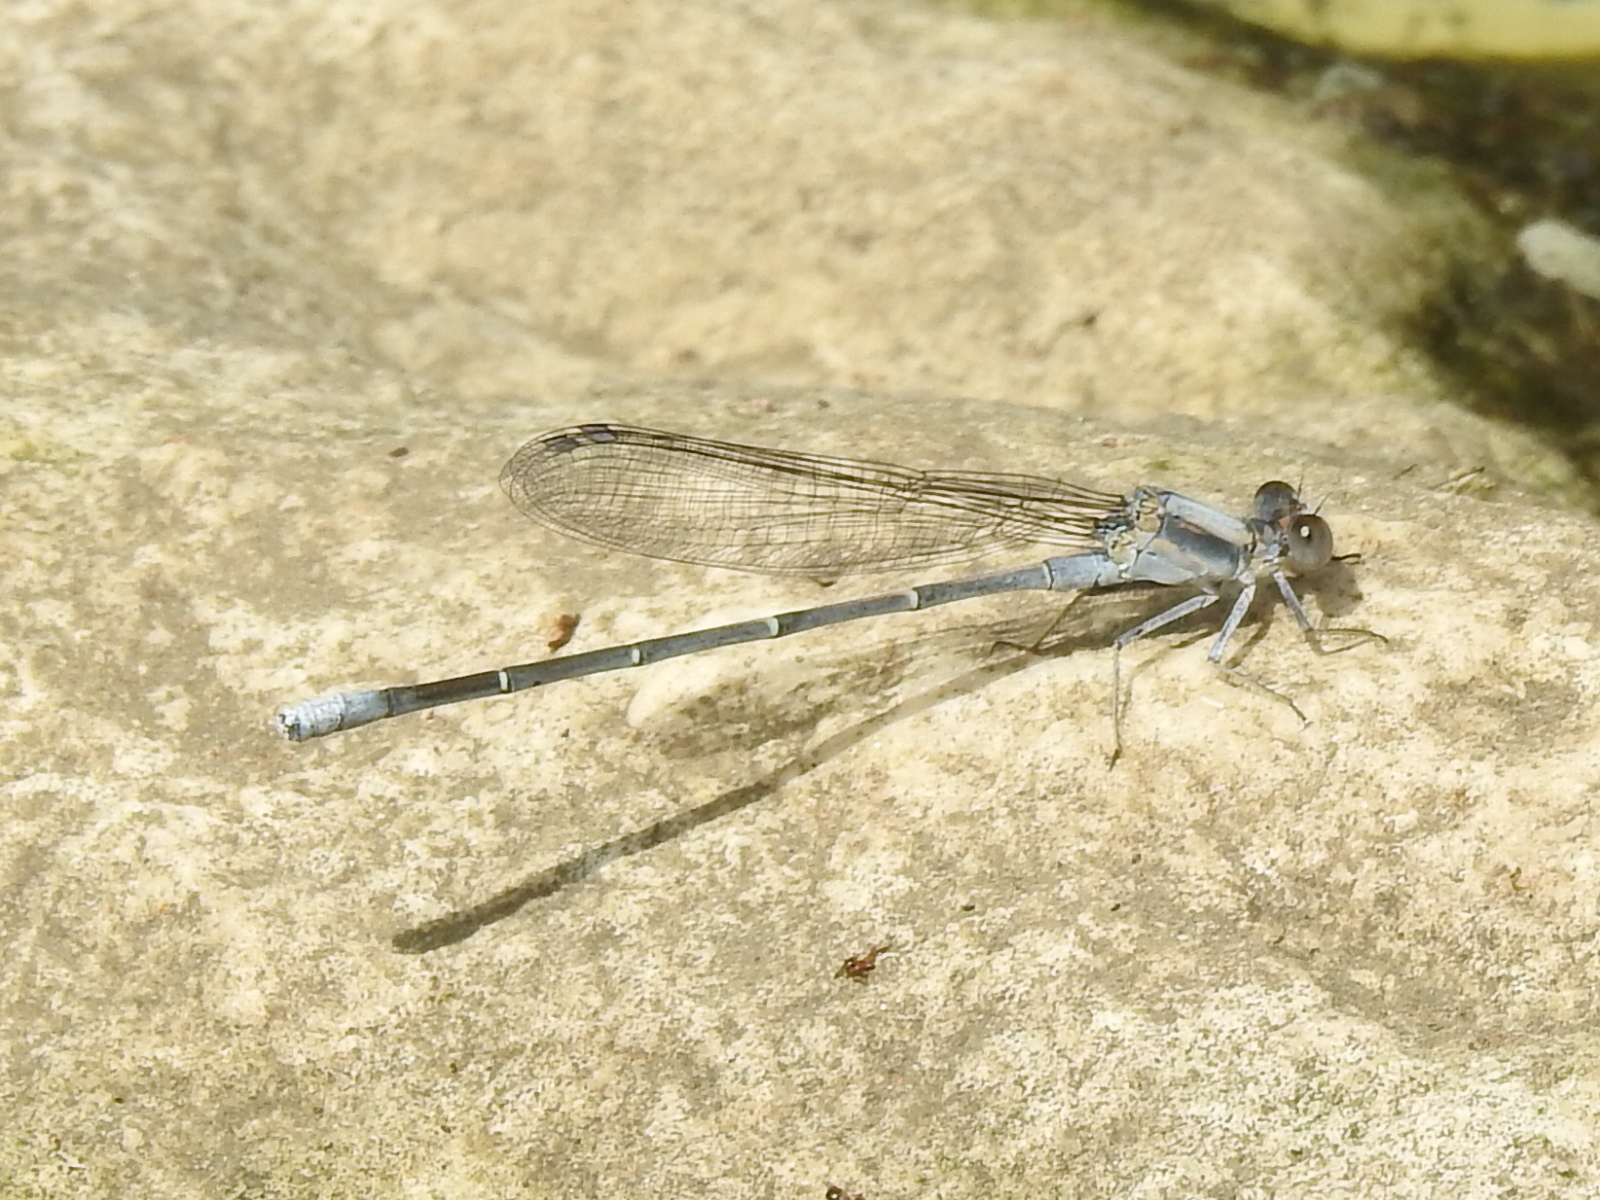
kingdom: Animalia
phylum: Arthropoda
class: Insecta
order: Odonata
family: Coenagrionidae
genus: Argia
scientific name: Argia moesta
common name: Powdered dancer
